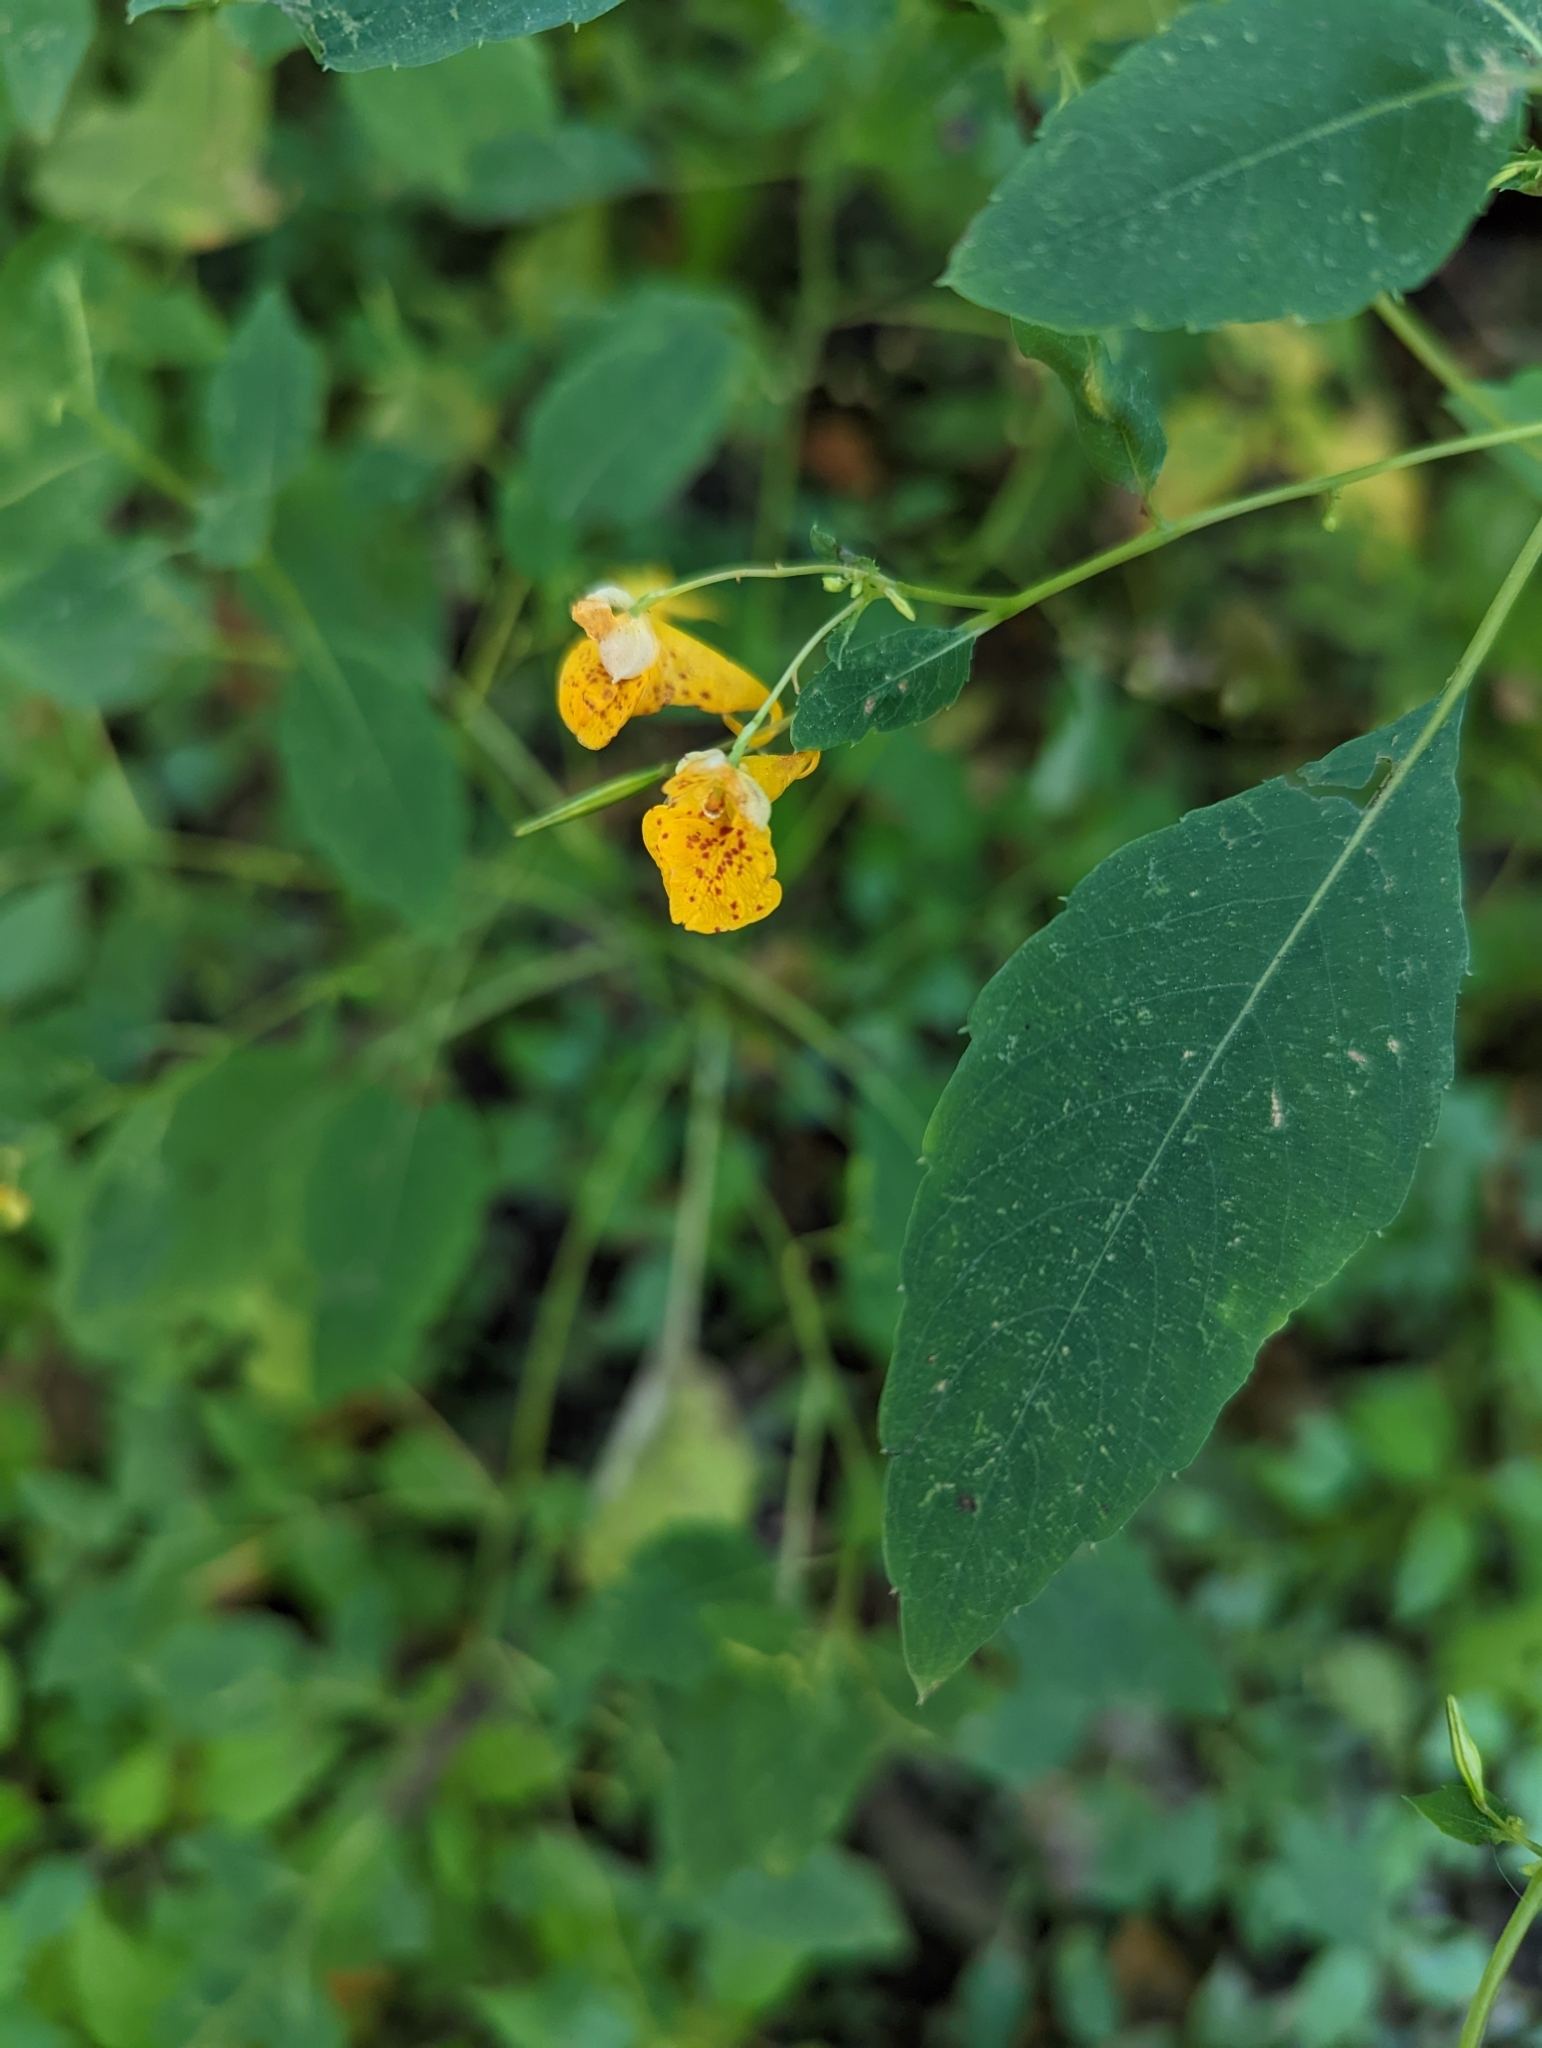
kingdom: Plantae
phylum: Tracheophyta
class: Magnoliopsida
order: Ericales
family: Balsaminaceae
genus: Impatiens
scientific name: Impatiens capensis
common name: Orange balsam
